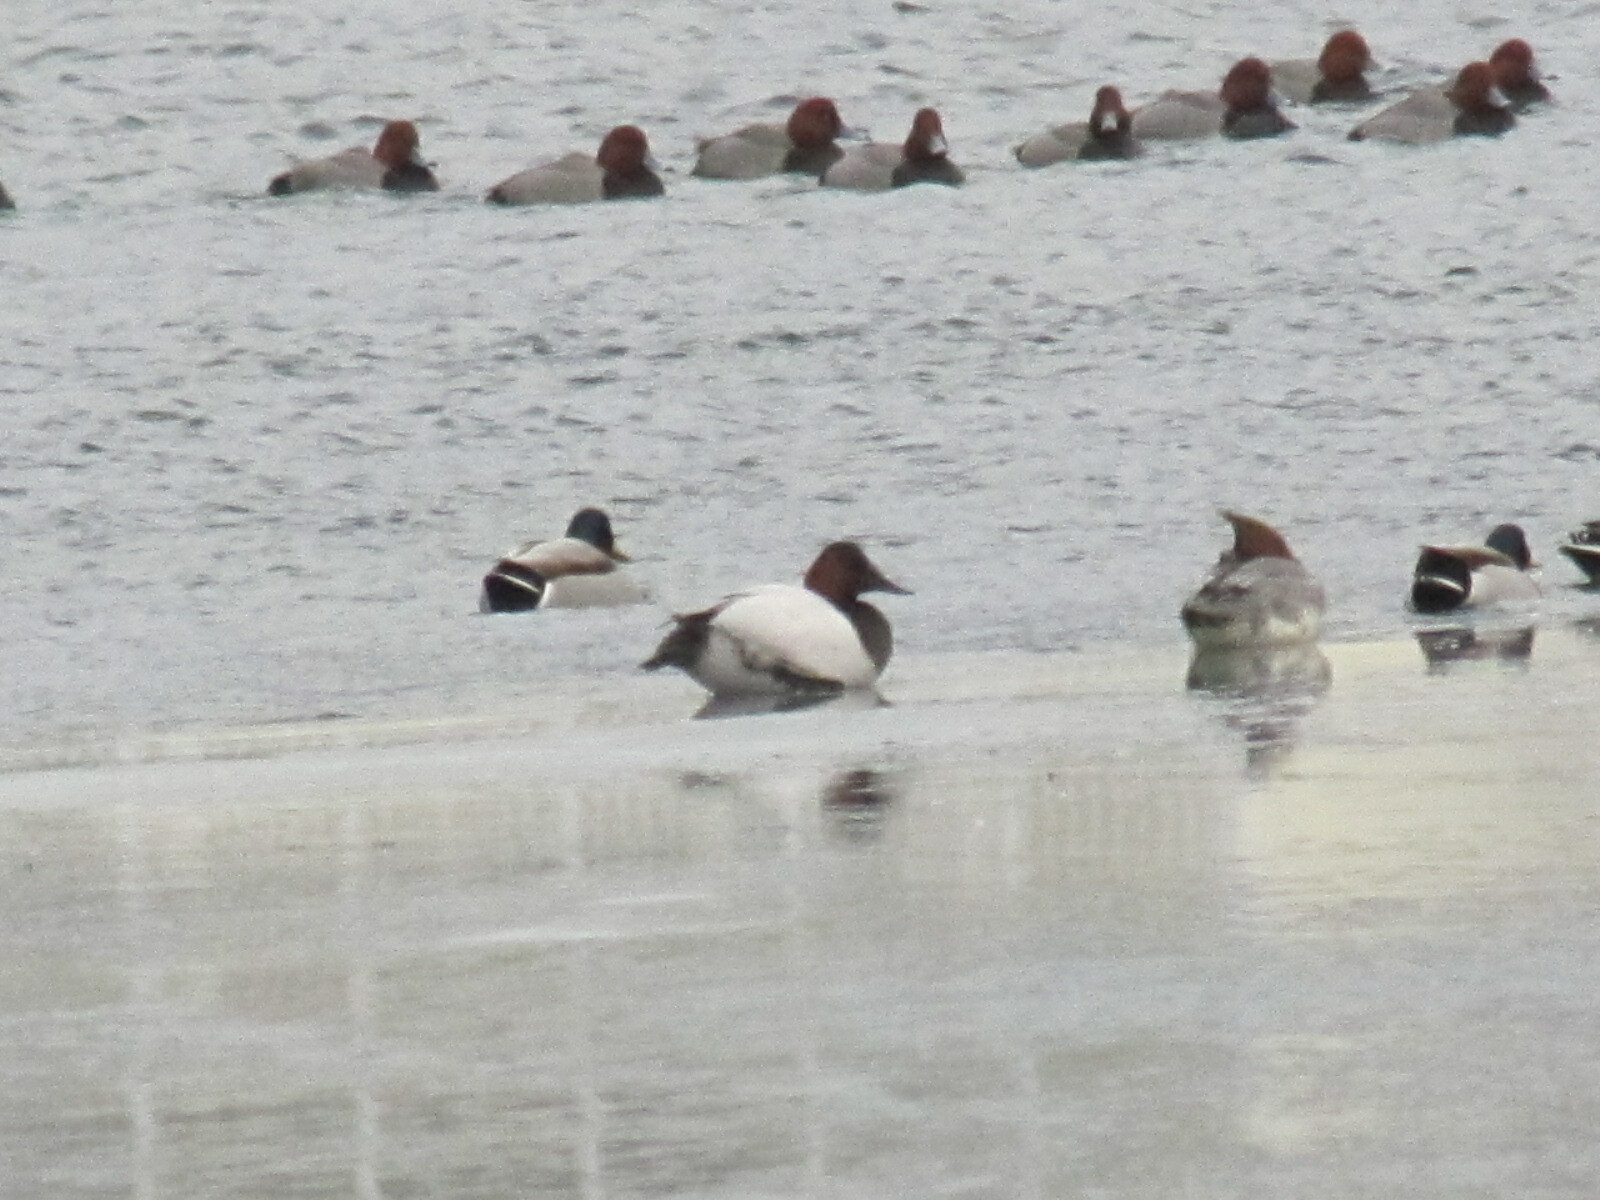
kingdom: Animalia
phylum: Chordata
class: Aves
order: Anseriformes
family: Anatidae
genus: Aythya
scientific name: Aythya valisineria
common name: Canvasback
